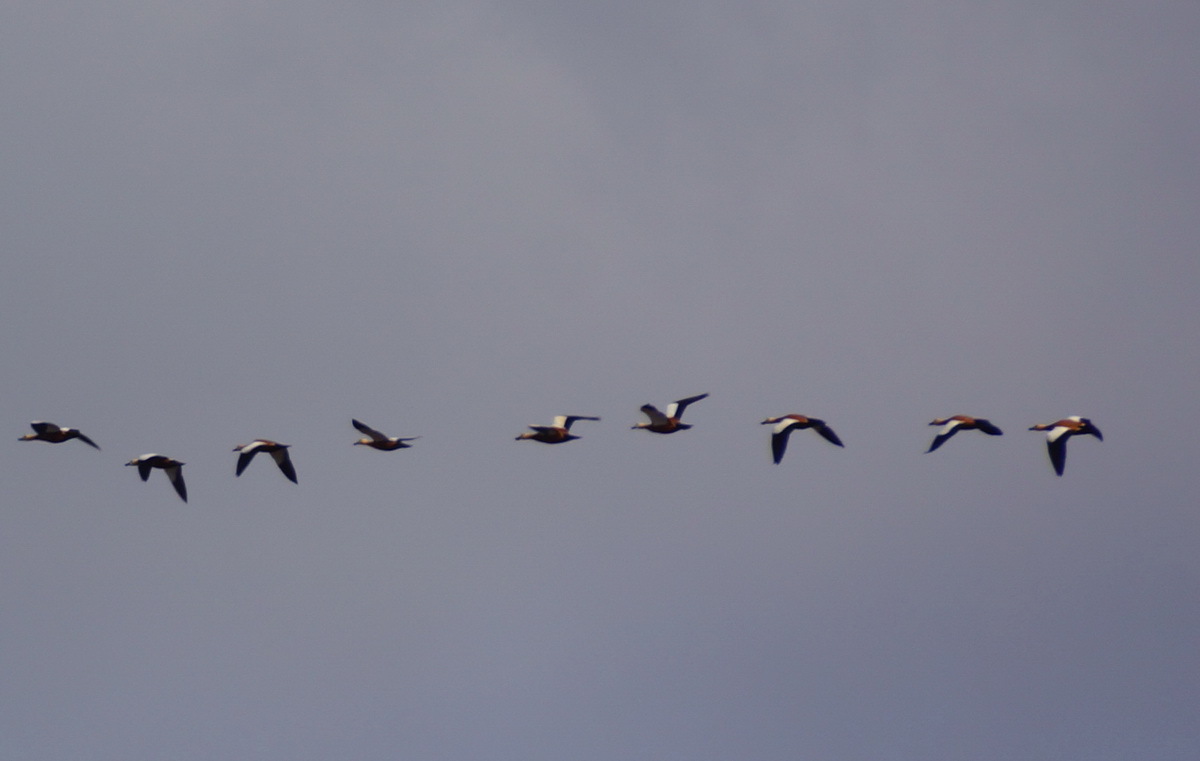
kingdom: Animalia
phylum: Chordata
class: Aves
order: Anseriformes
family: Anatidae
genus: Tadorna
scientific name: Tadorna ferruginea
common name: Ruddy shelduck
